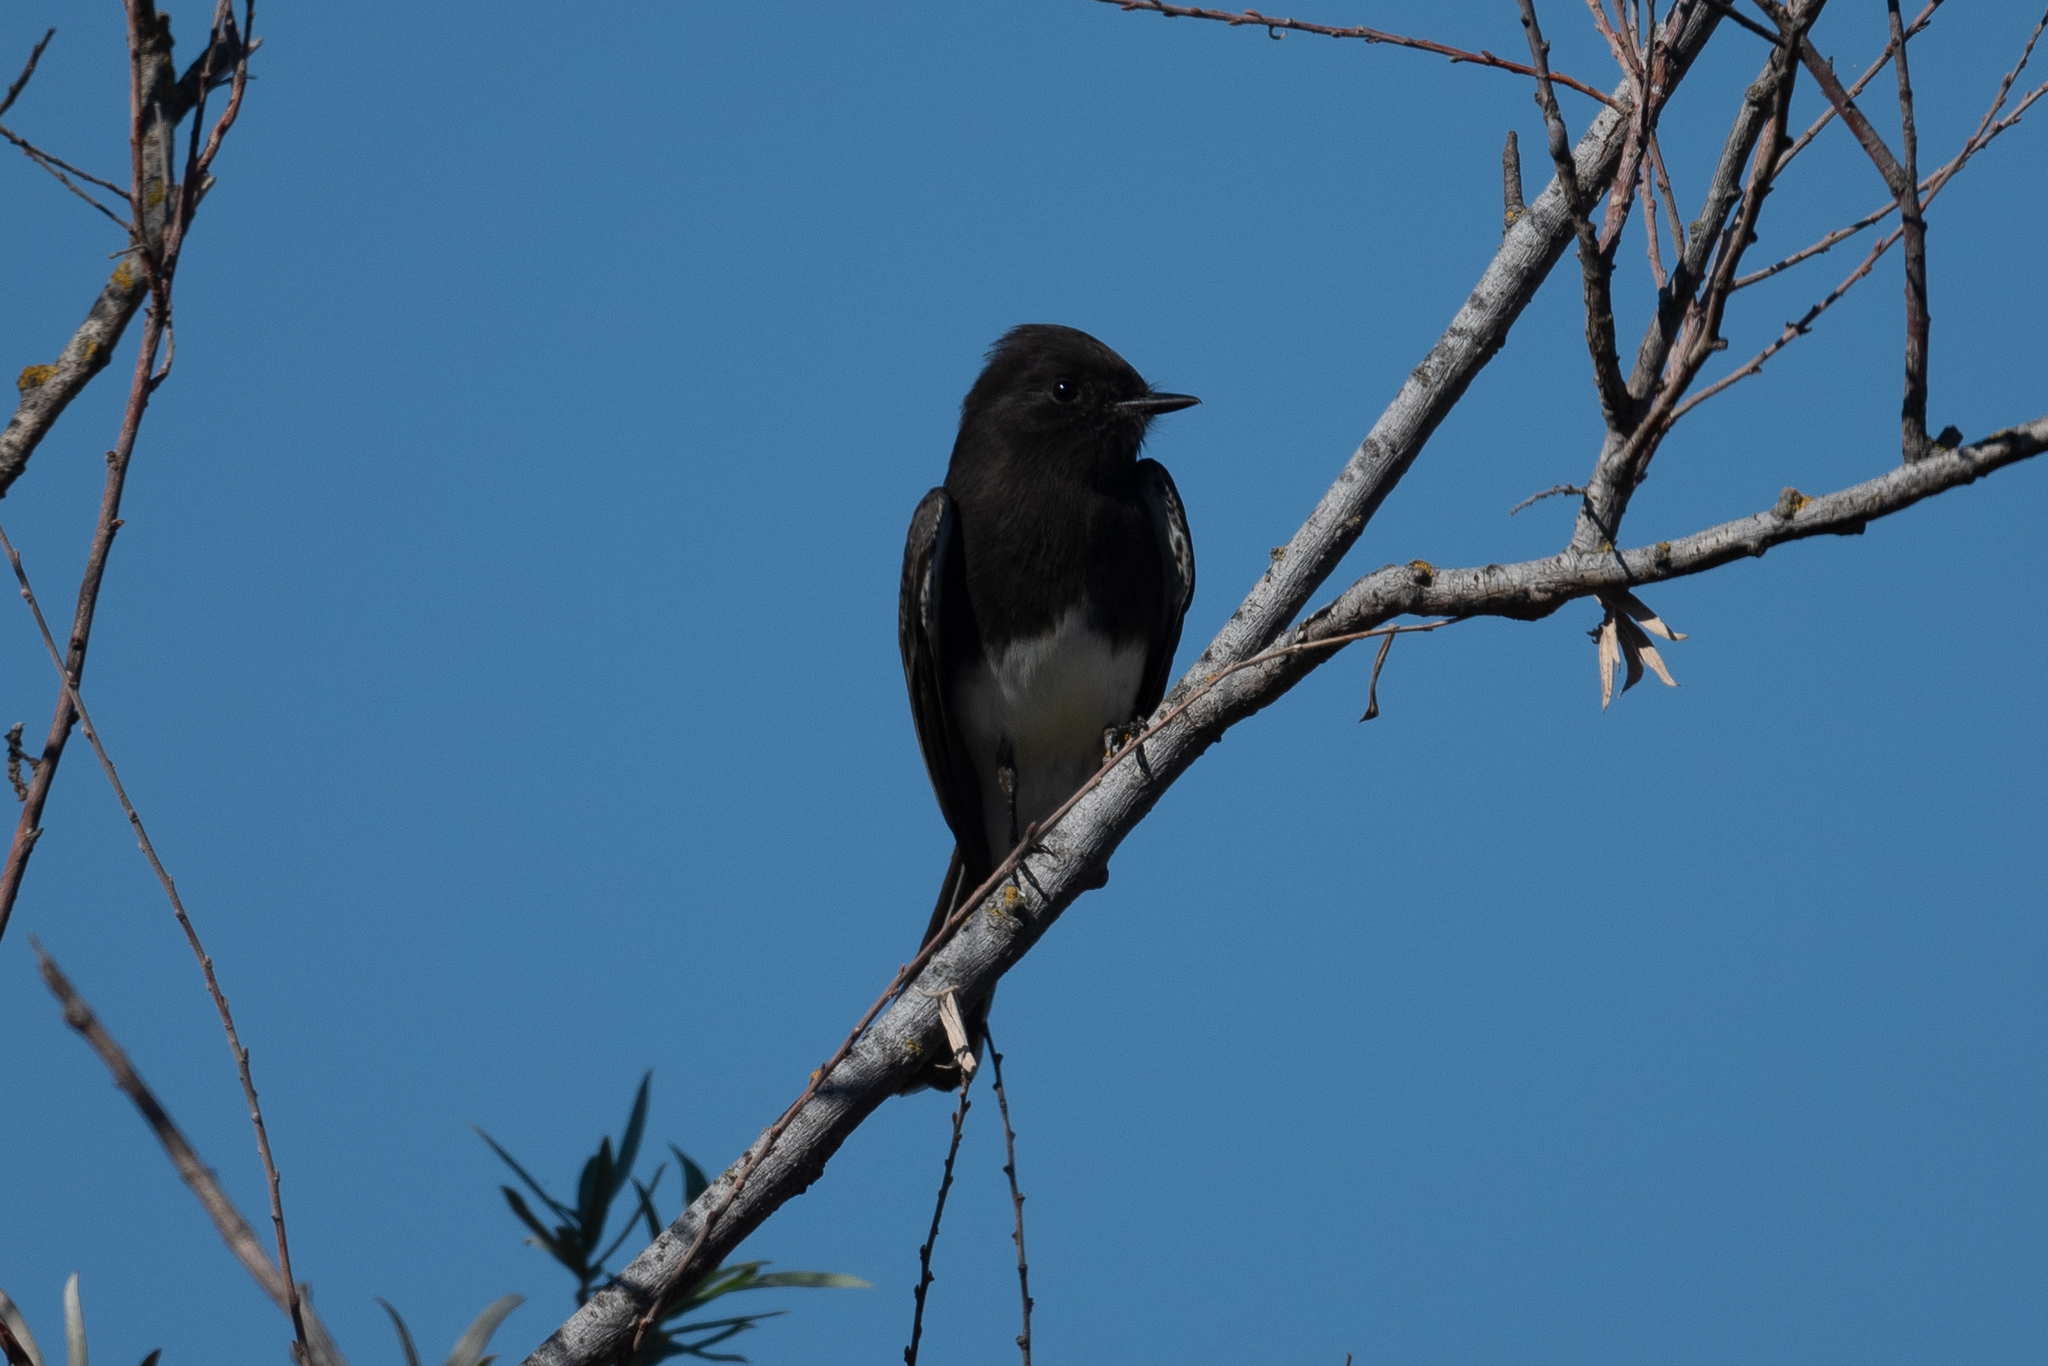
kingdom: Animalia
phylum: Chordata
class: Aves
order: Passeriformes
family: Tyrannidae
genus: Sayornis
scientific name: Sayornis nigricans
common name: Black phoebe
